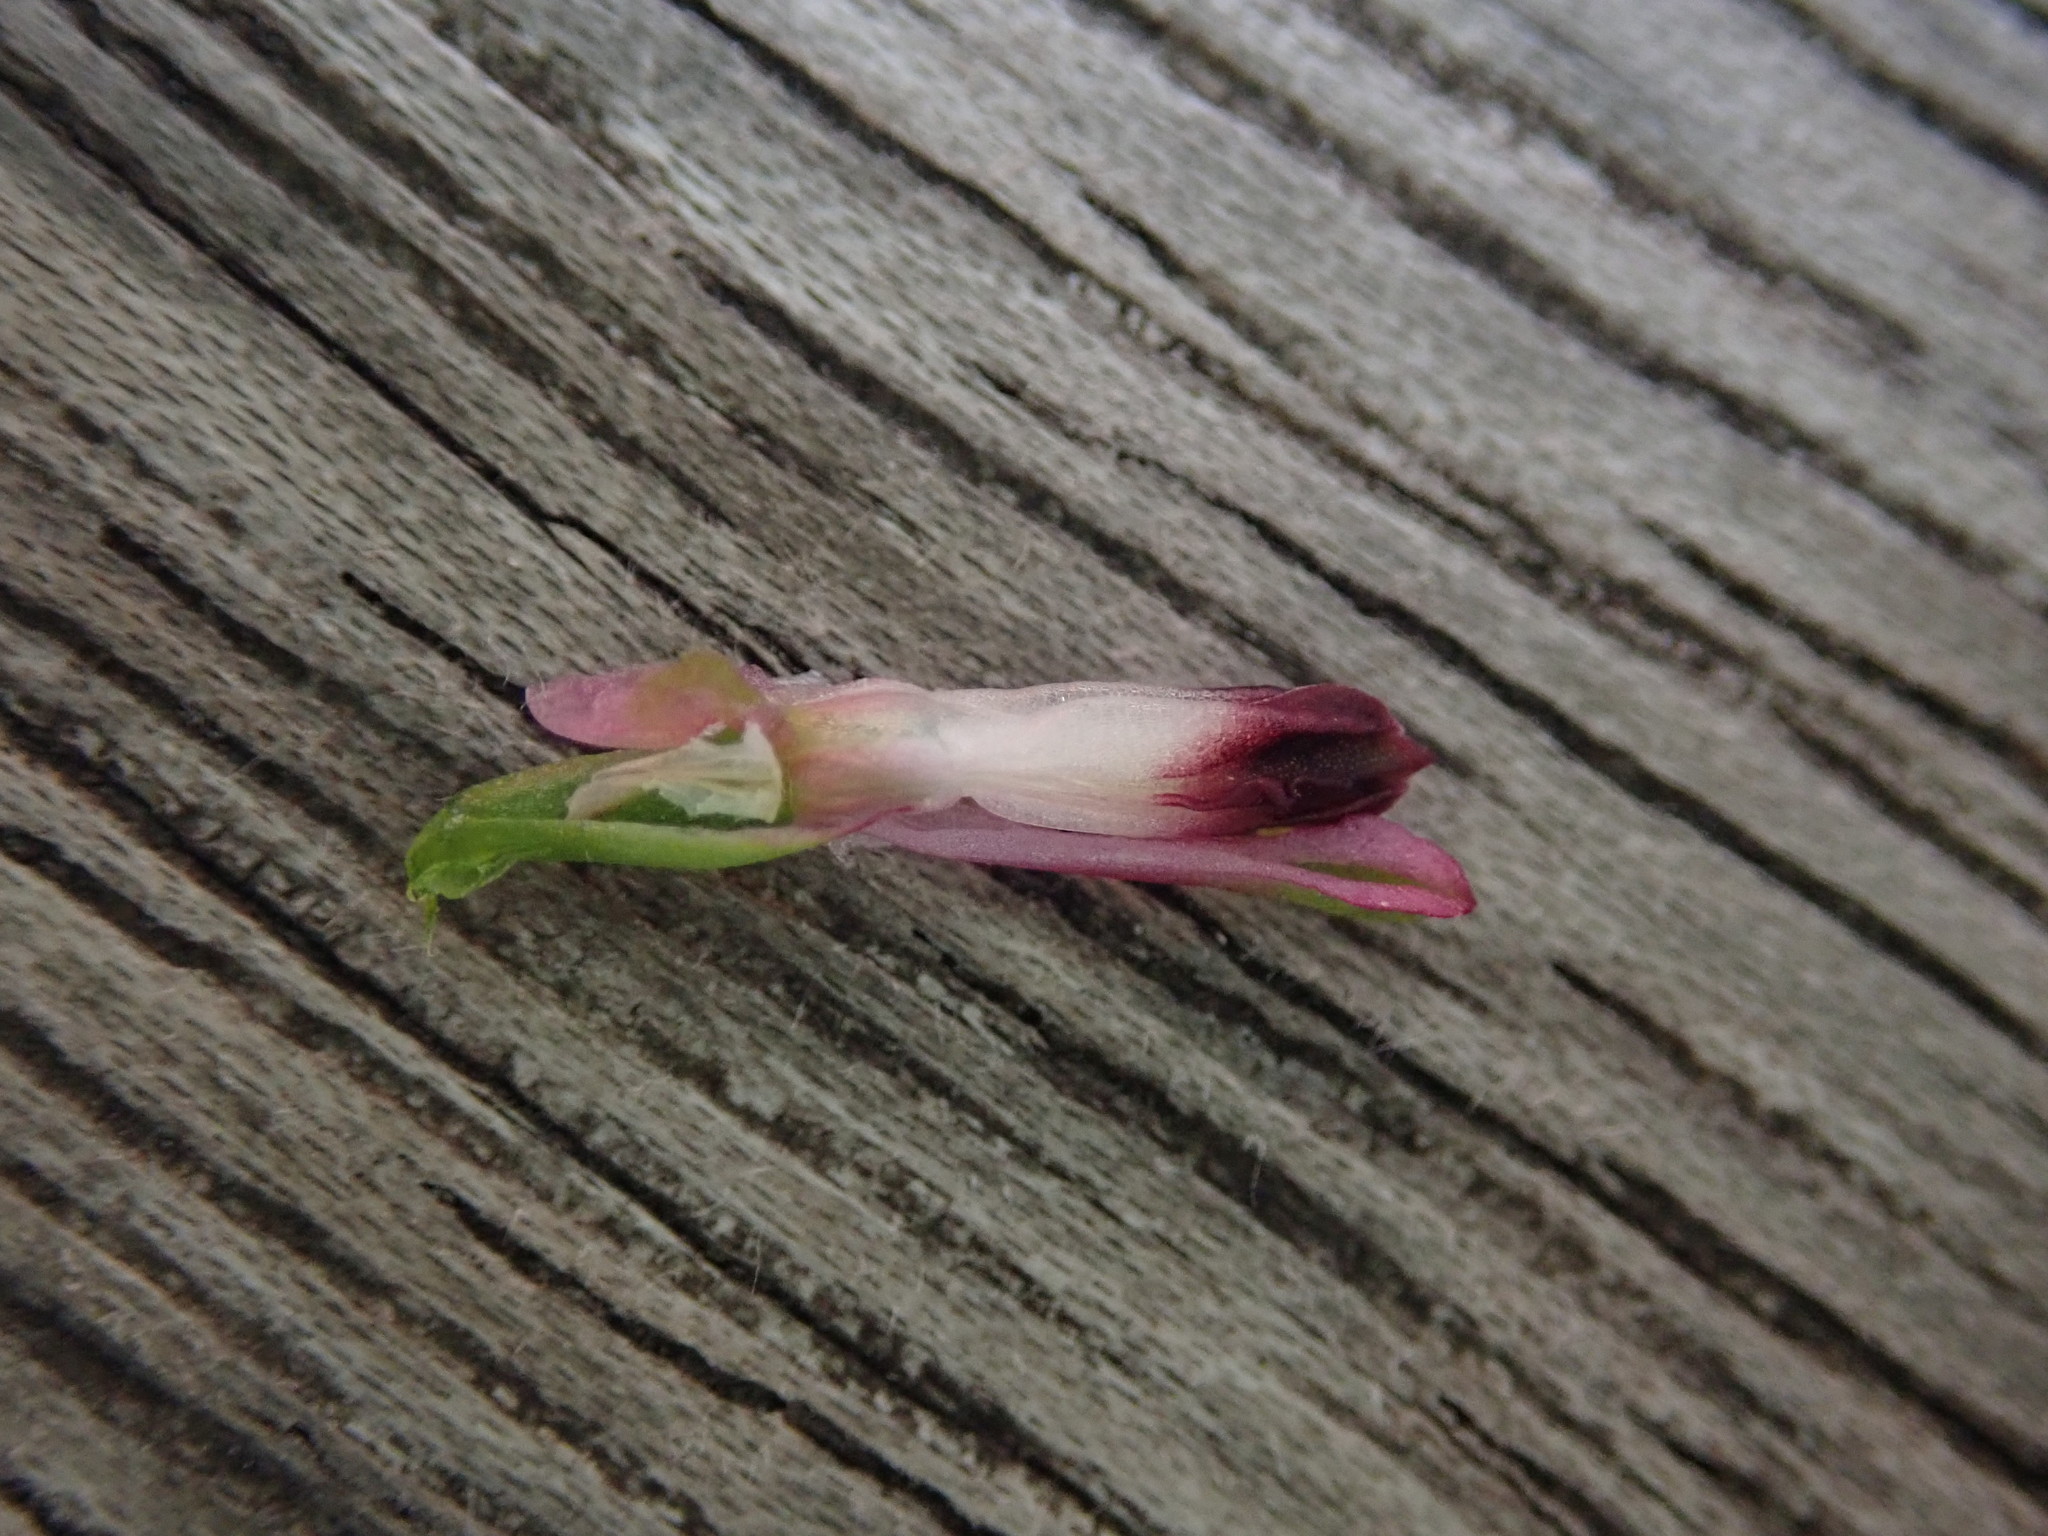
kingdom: Plantae
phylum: Tracheophyta
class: Magnoliopsida
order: Ranunculales
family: Papaveraceae
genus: Fumaria
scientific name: Fumaria officinalis
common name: Common fumitory
